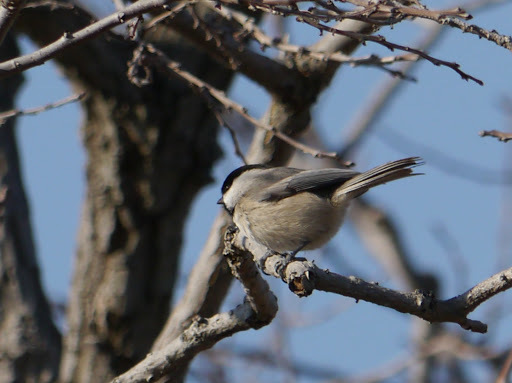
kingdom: Animalia
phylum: Chordata
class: Aves
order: Passeriformes
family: Paridae
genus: Poecile
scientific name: Poecile carolinensis
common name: Carolina chickadee
